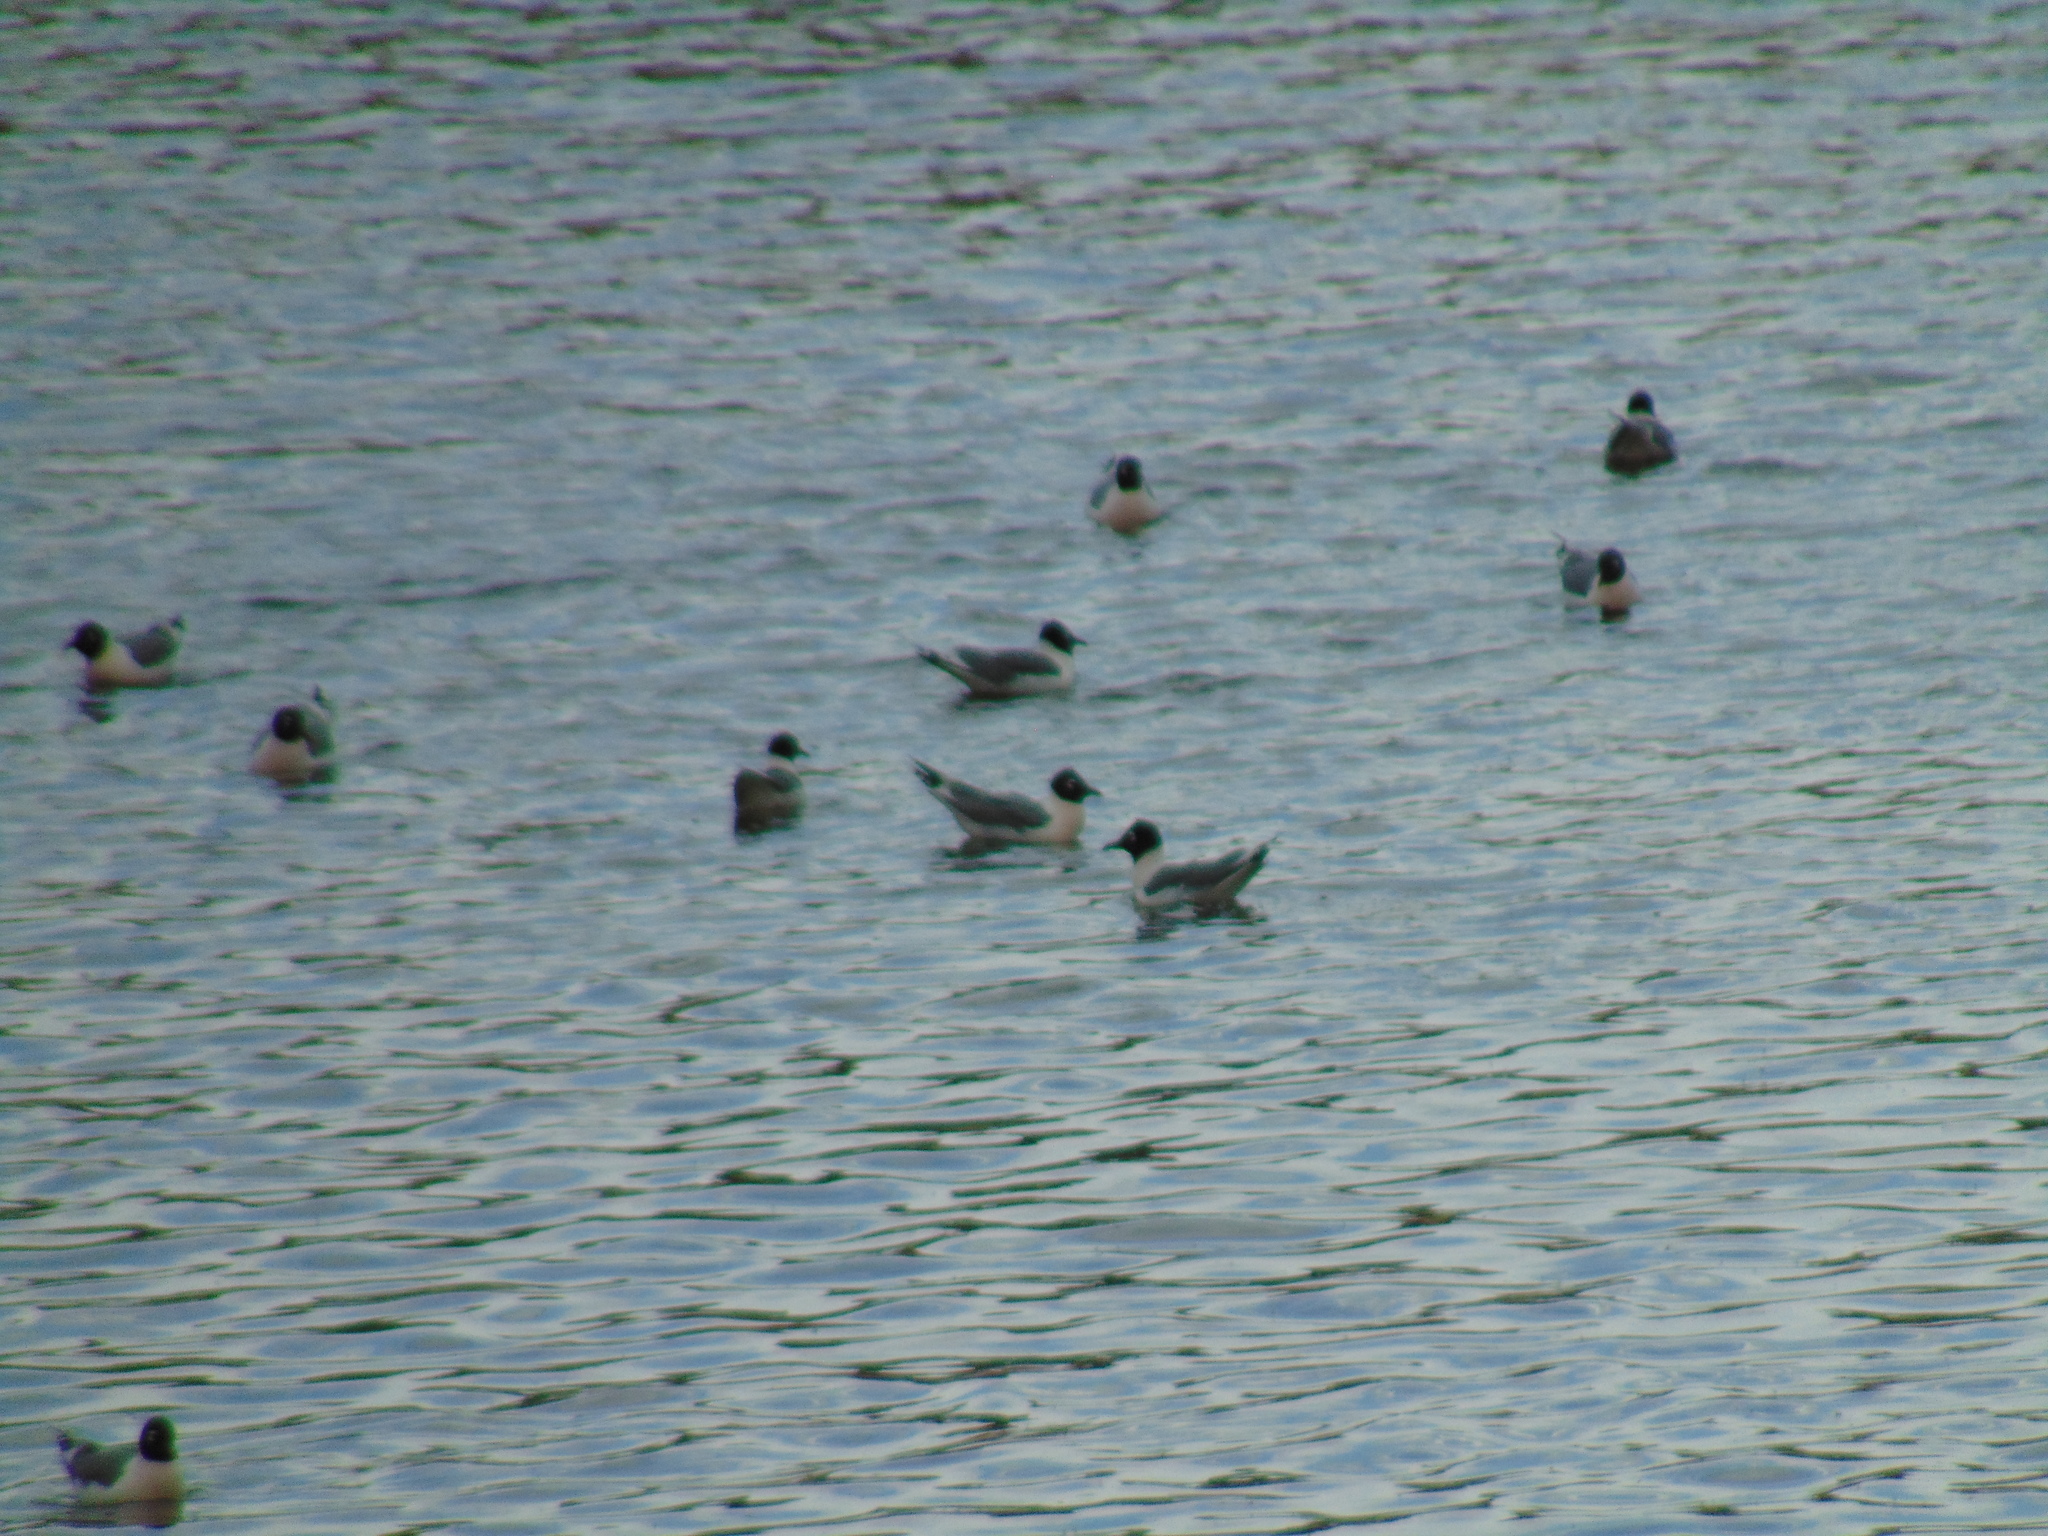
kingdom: Animalia
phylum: Chordata
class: Aves
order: Charadriiformes
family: Laridae
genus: Leucophaeus
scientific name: Leucophaeus pipixcan
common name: Franklin's gull
